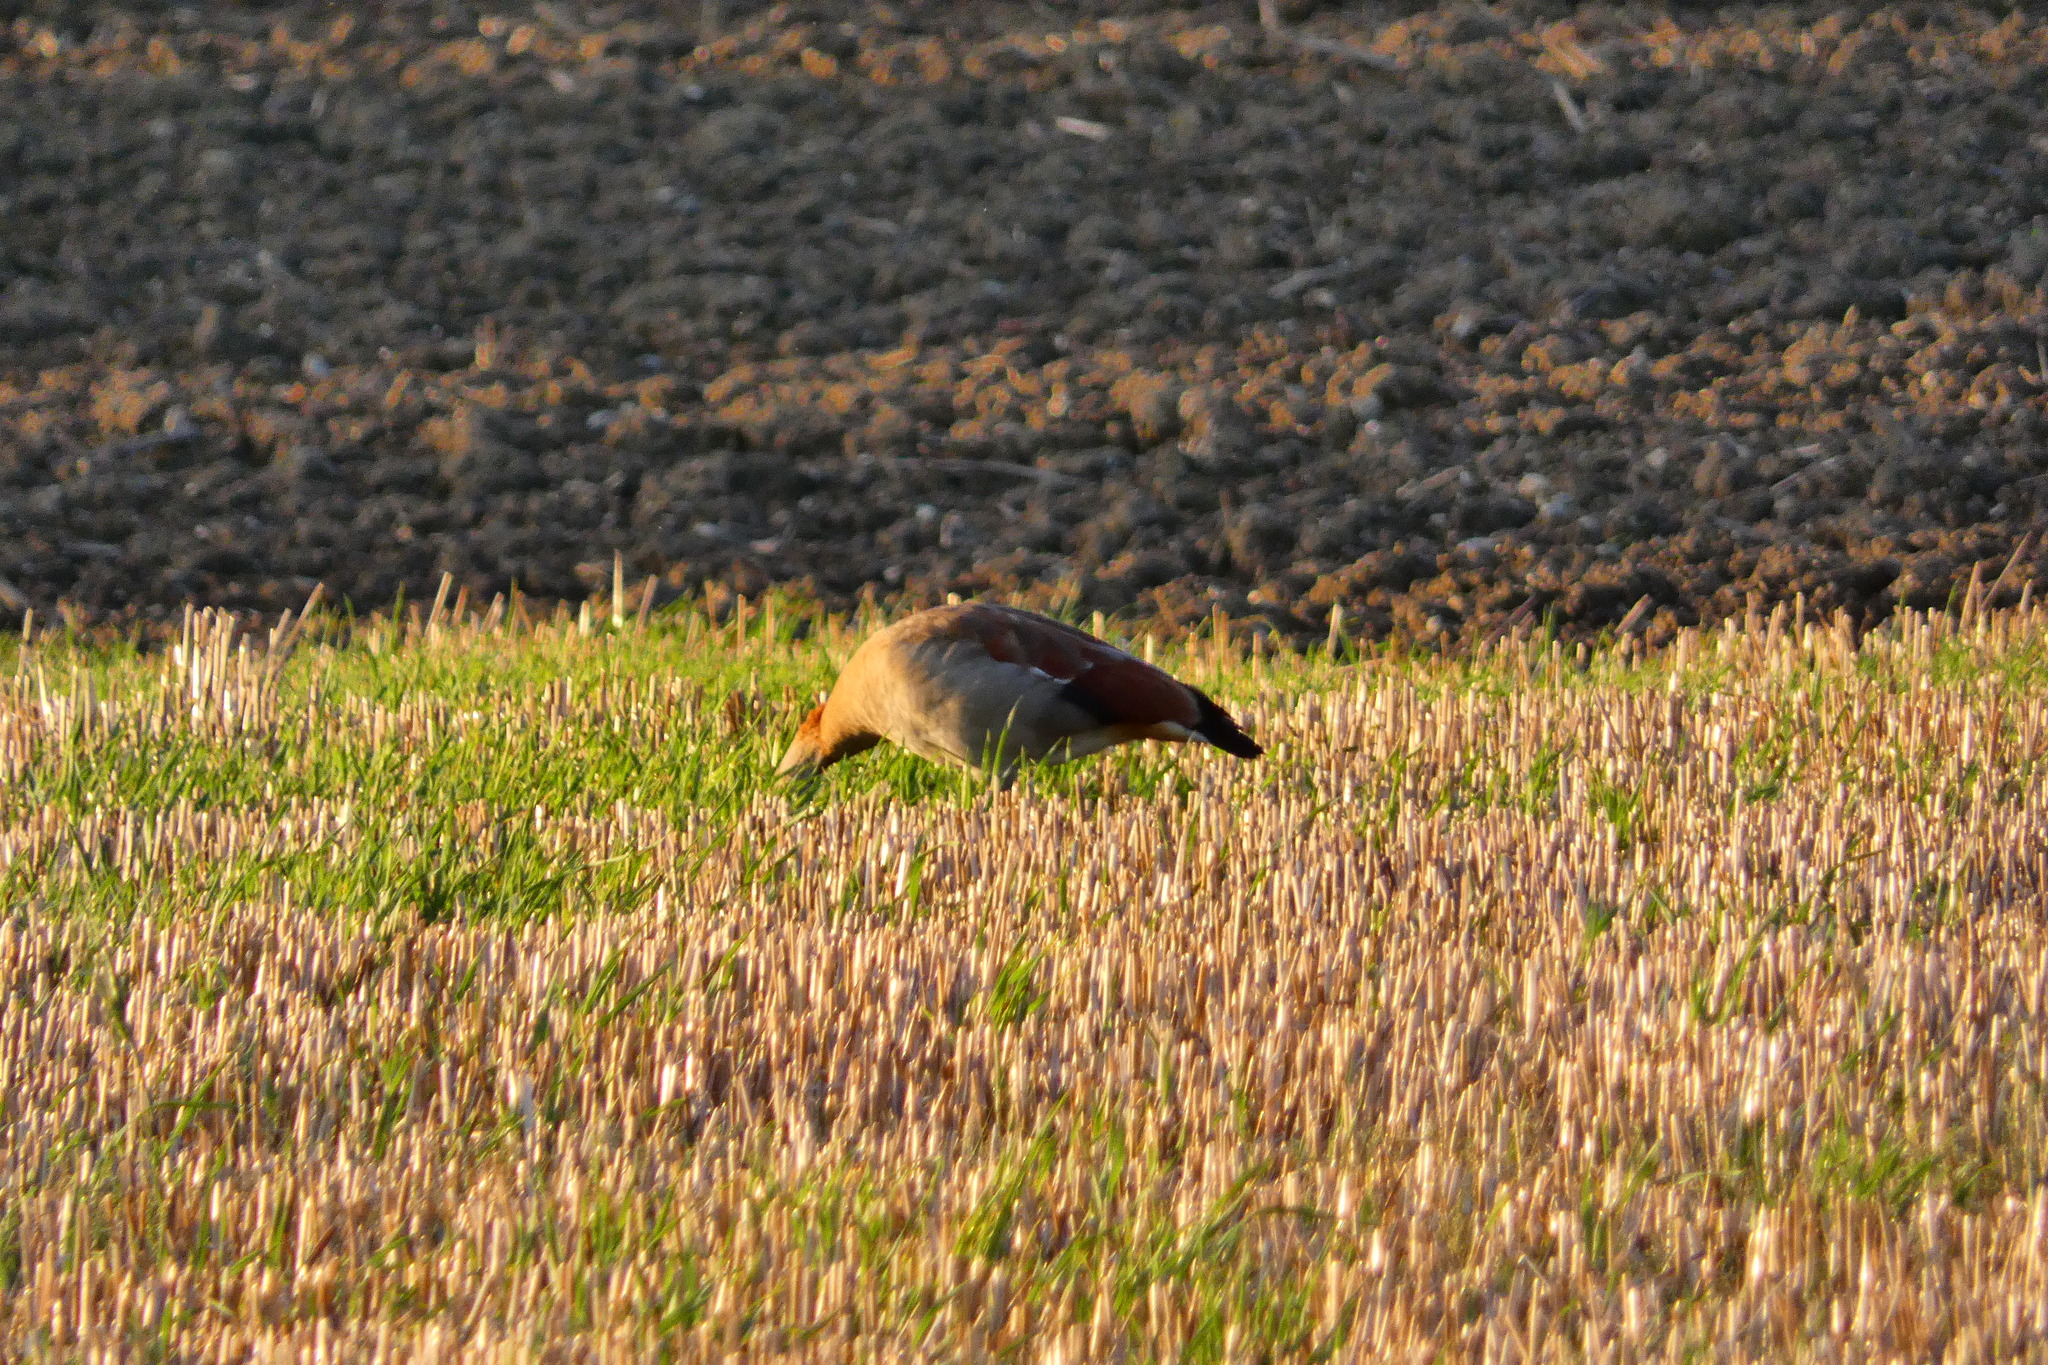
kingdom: Animalia
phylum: Chordata
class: Aves
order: Anseriformes
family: Anatidae
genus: Alopochen
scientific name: Alopochen aegyptiaca
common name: Egyptian goose
